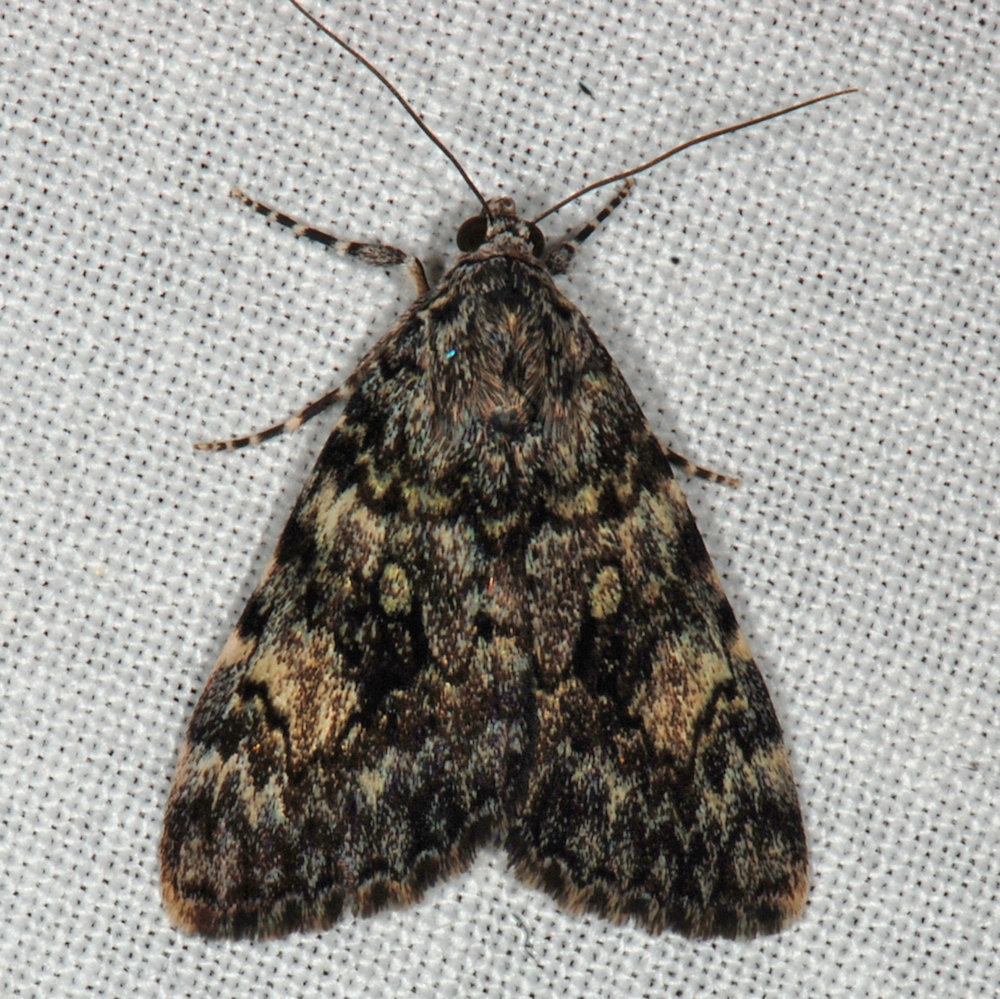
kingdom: Animalia
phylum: Arthropoda
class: Insecta
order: Lepidoptera
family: Erebidae
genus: Catocala
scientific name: Catocala lineella
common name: Little lined underwing
